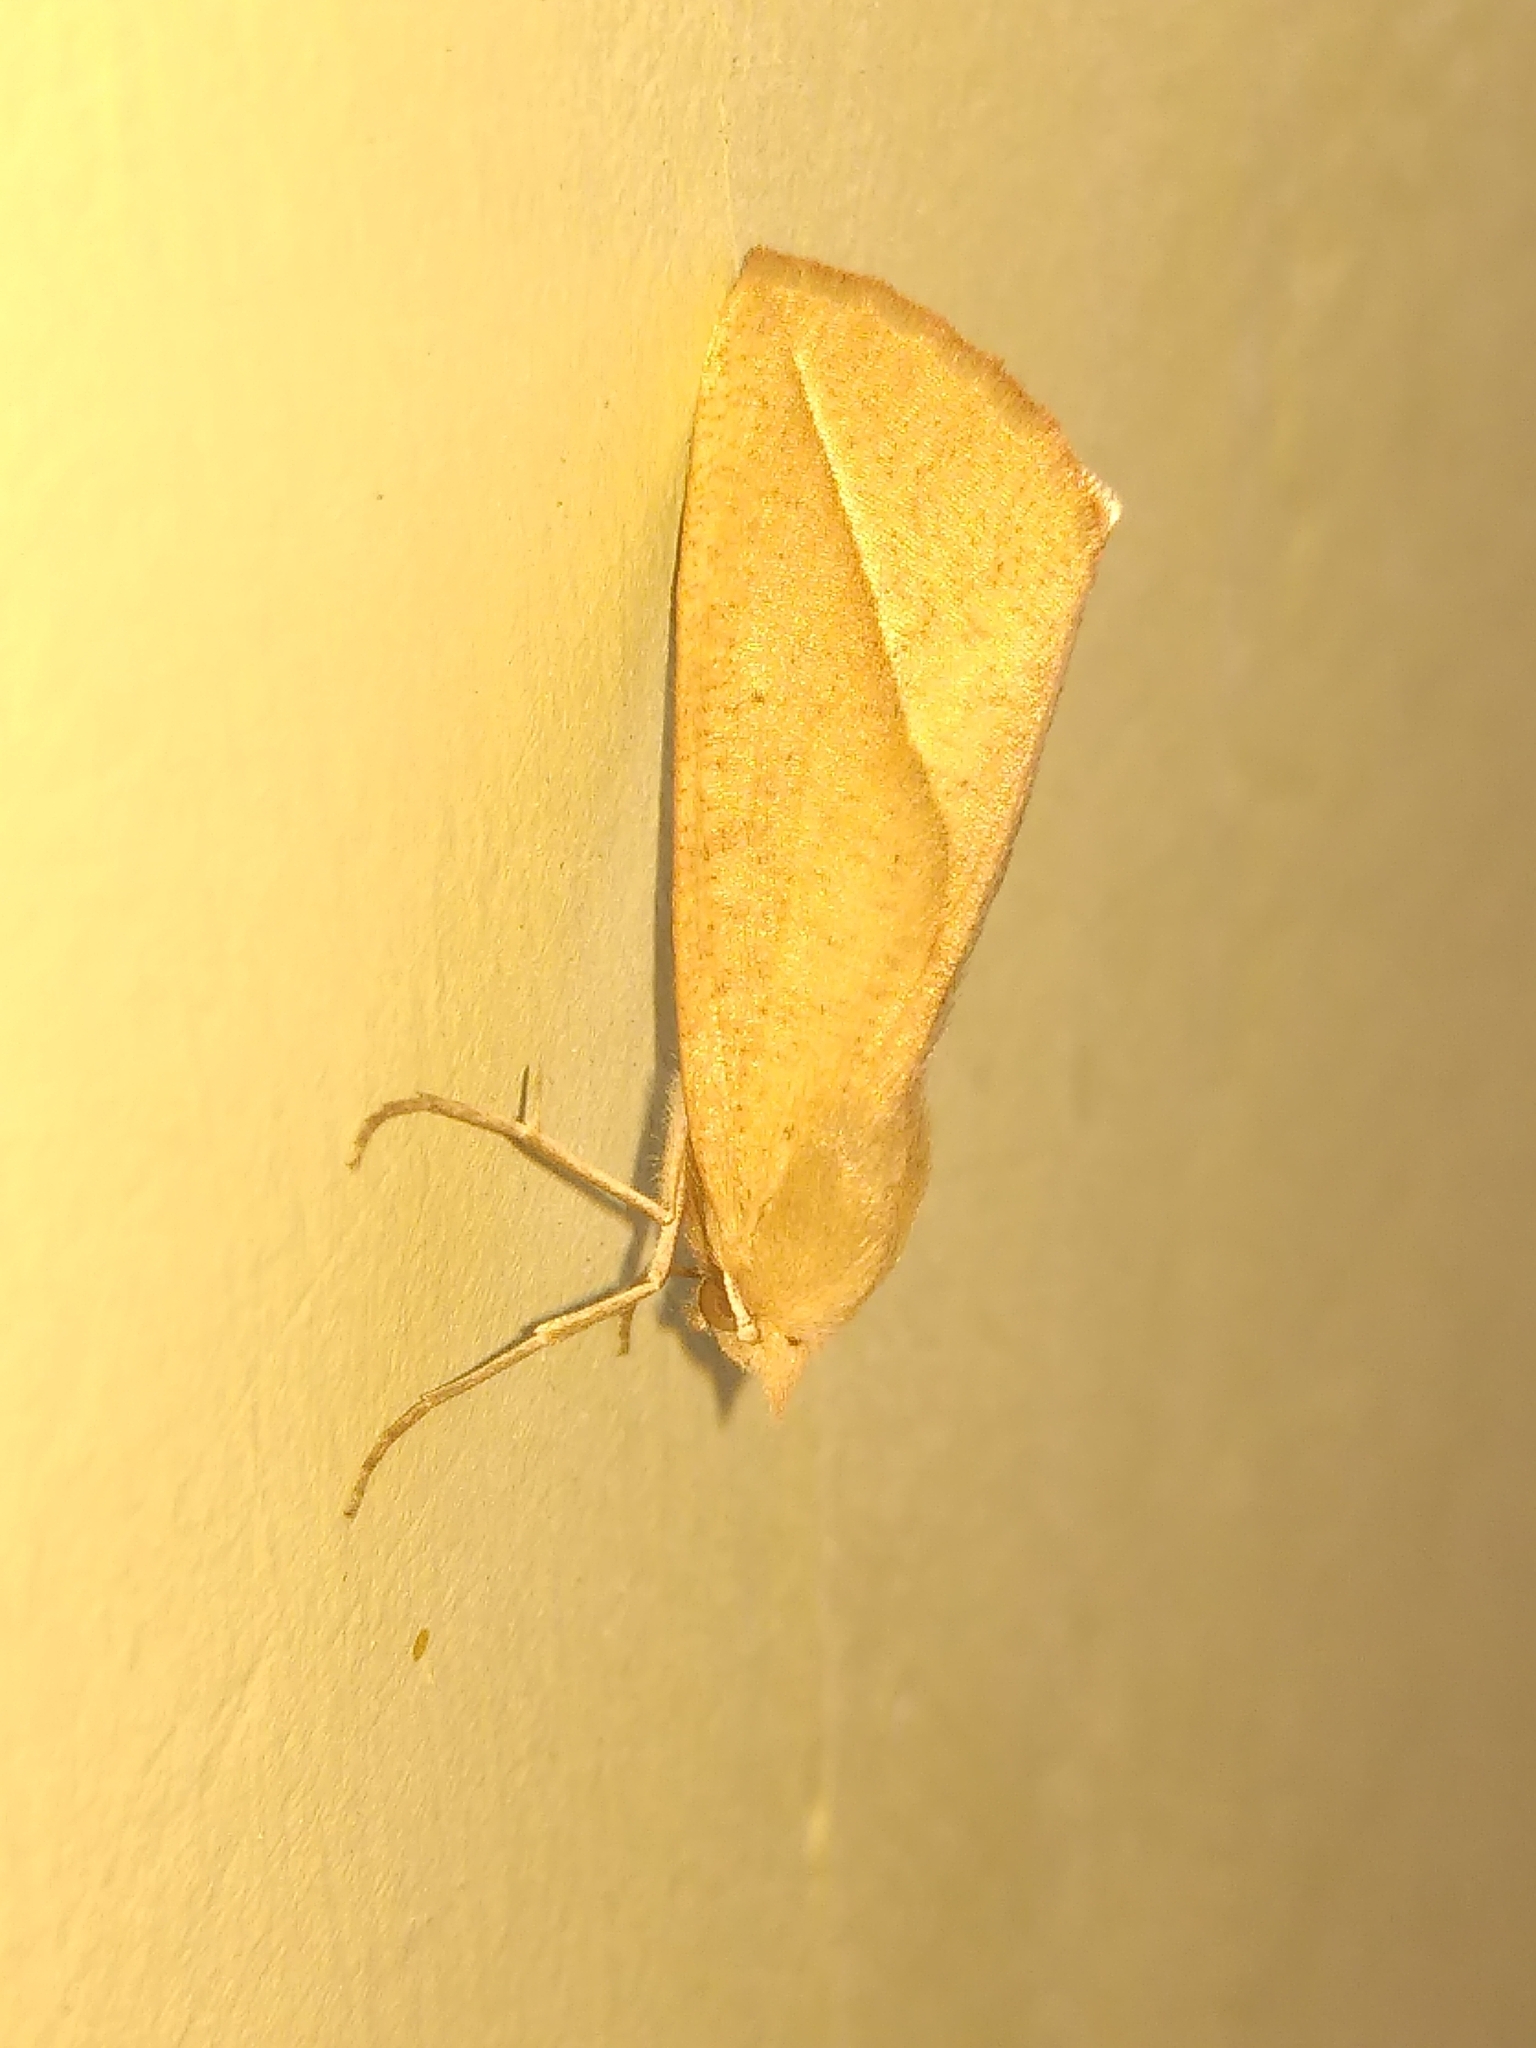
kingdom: Animalia
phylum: Arthropoda
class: Insecta
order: Lepidoptera
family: Geometridae
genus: Compsoptera
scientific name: Compsoptera opacaria
